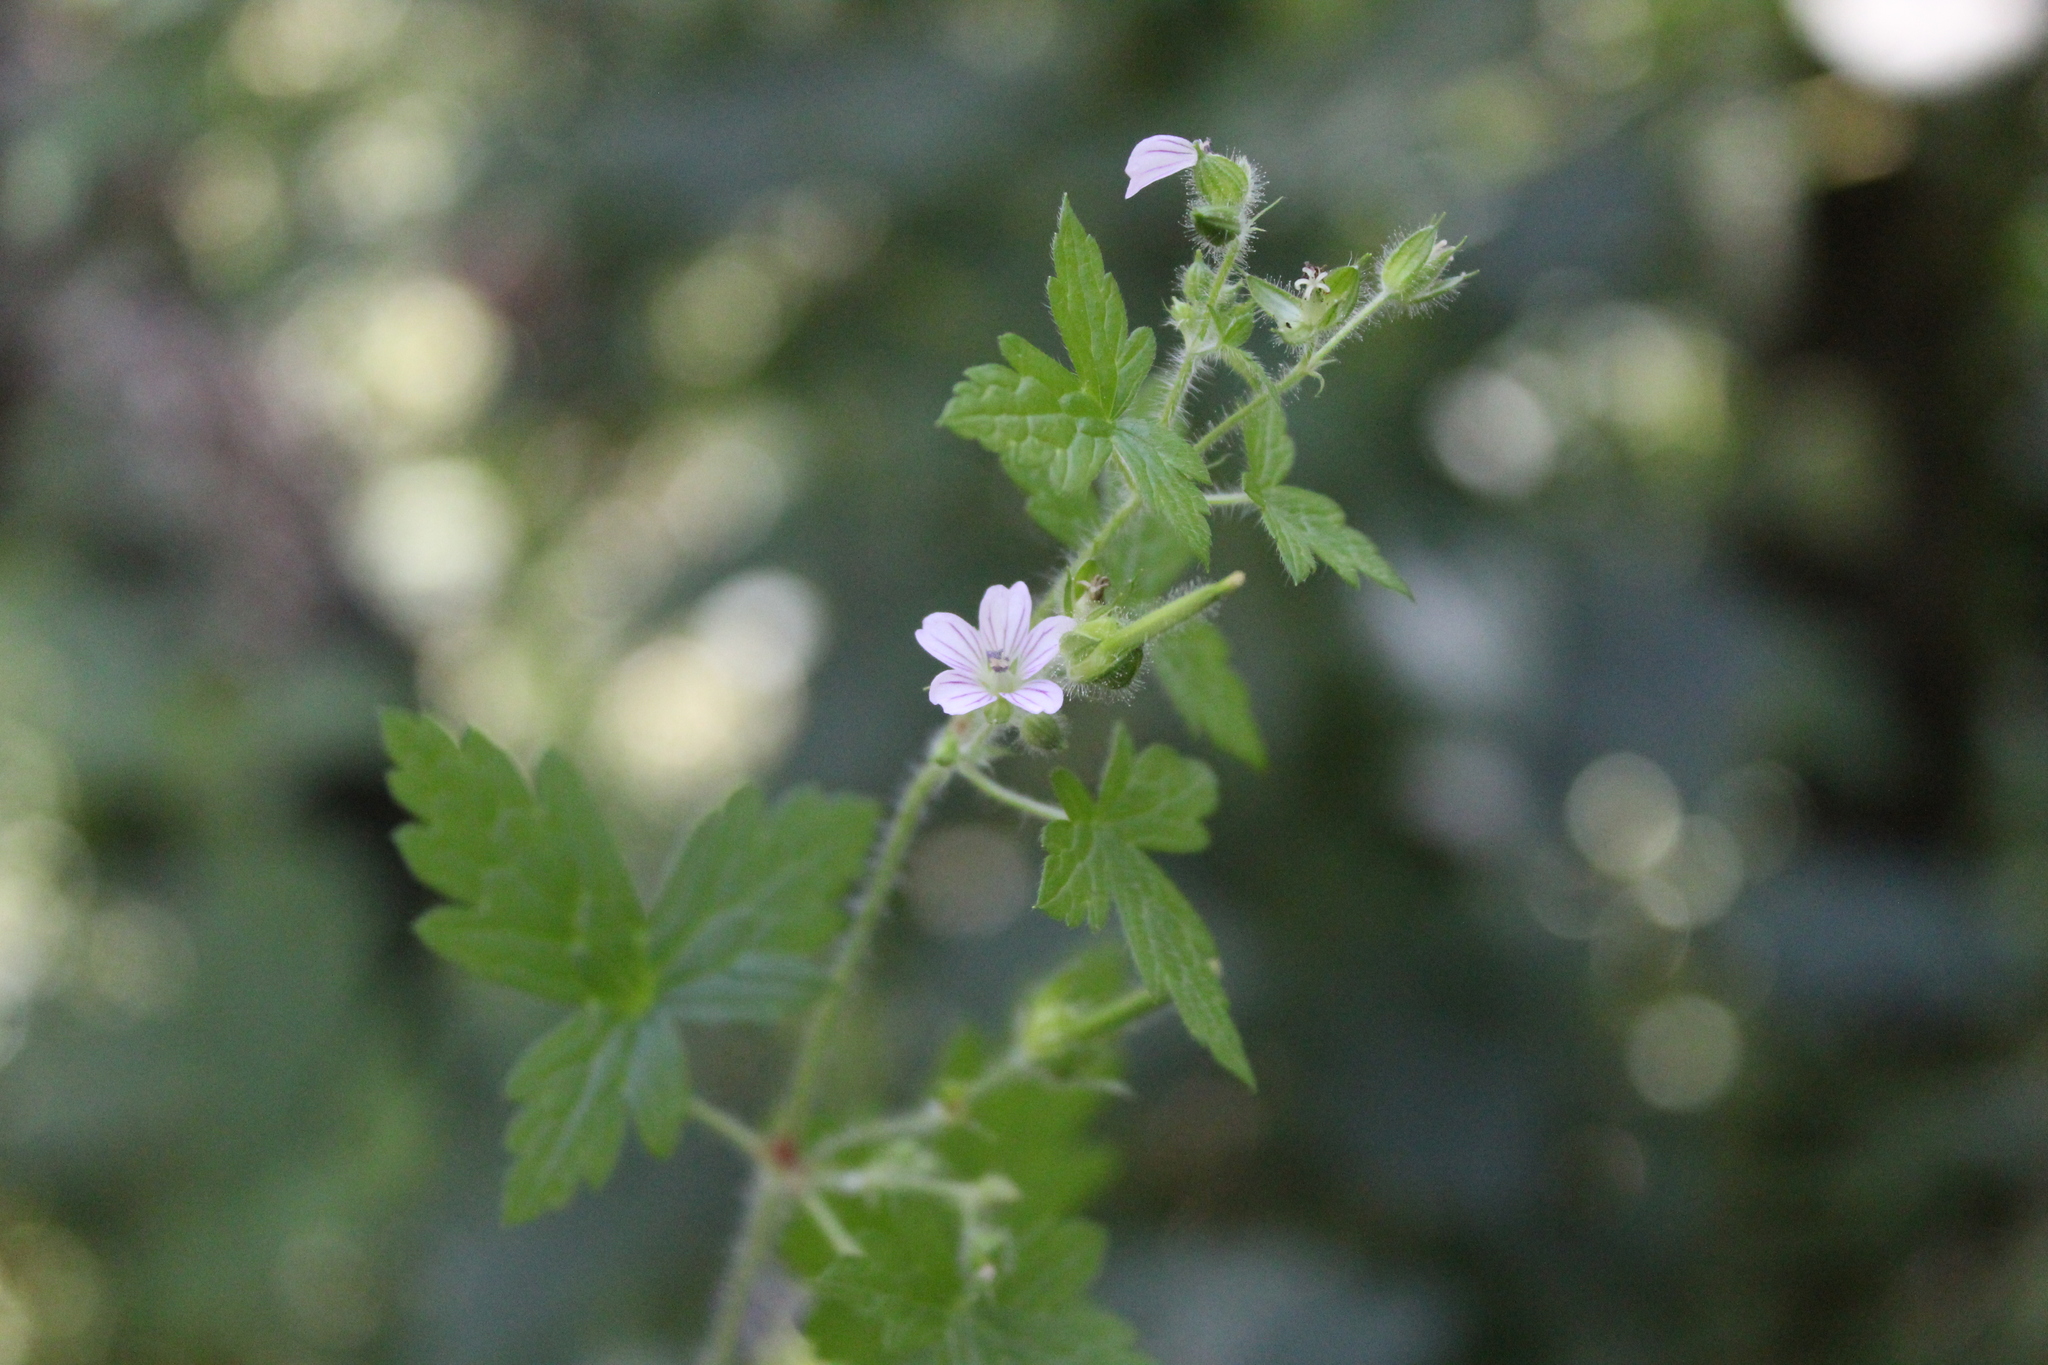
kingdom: Plantae
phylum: Tracheophyta
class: Magnoliopsida
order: Geraniales
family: Geraniaceae
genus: Geranium
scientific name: Geranium seemannii
